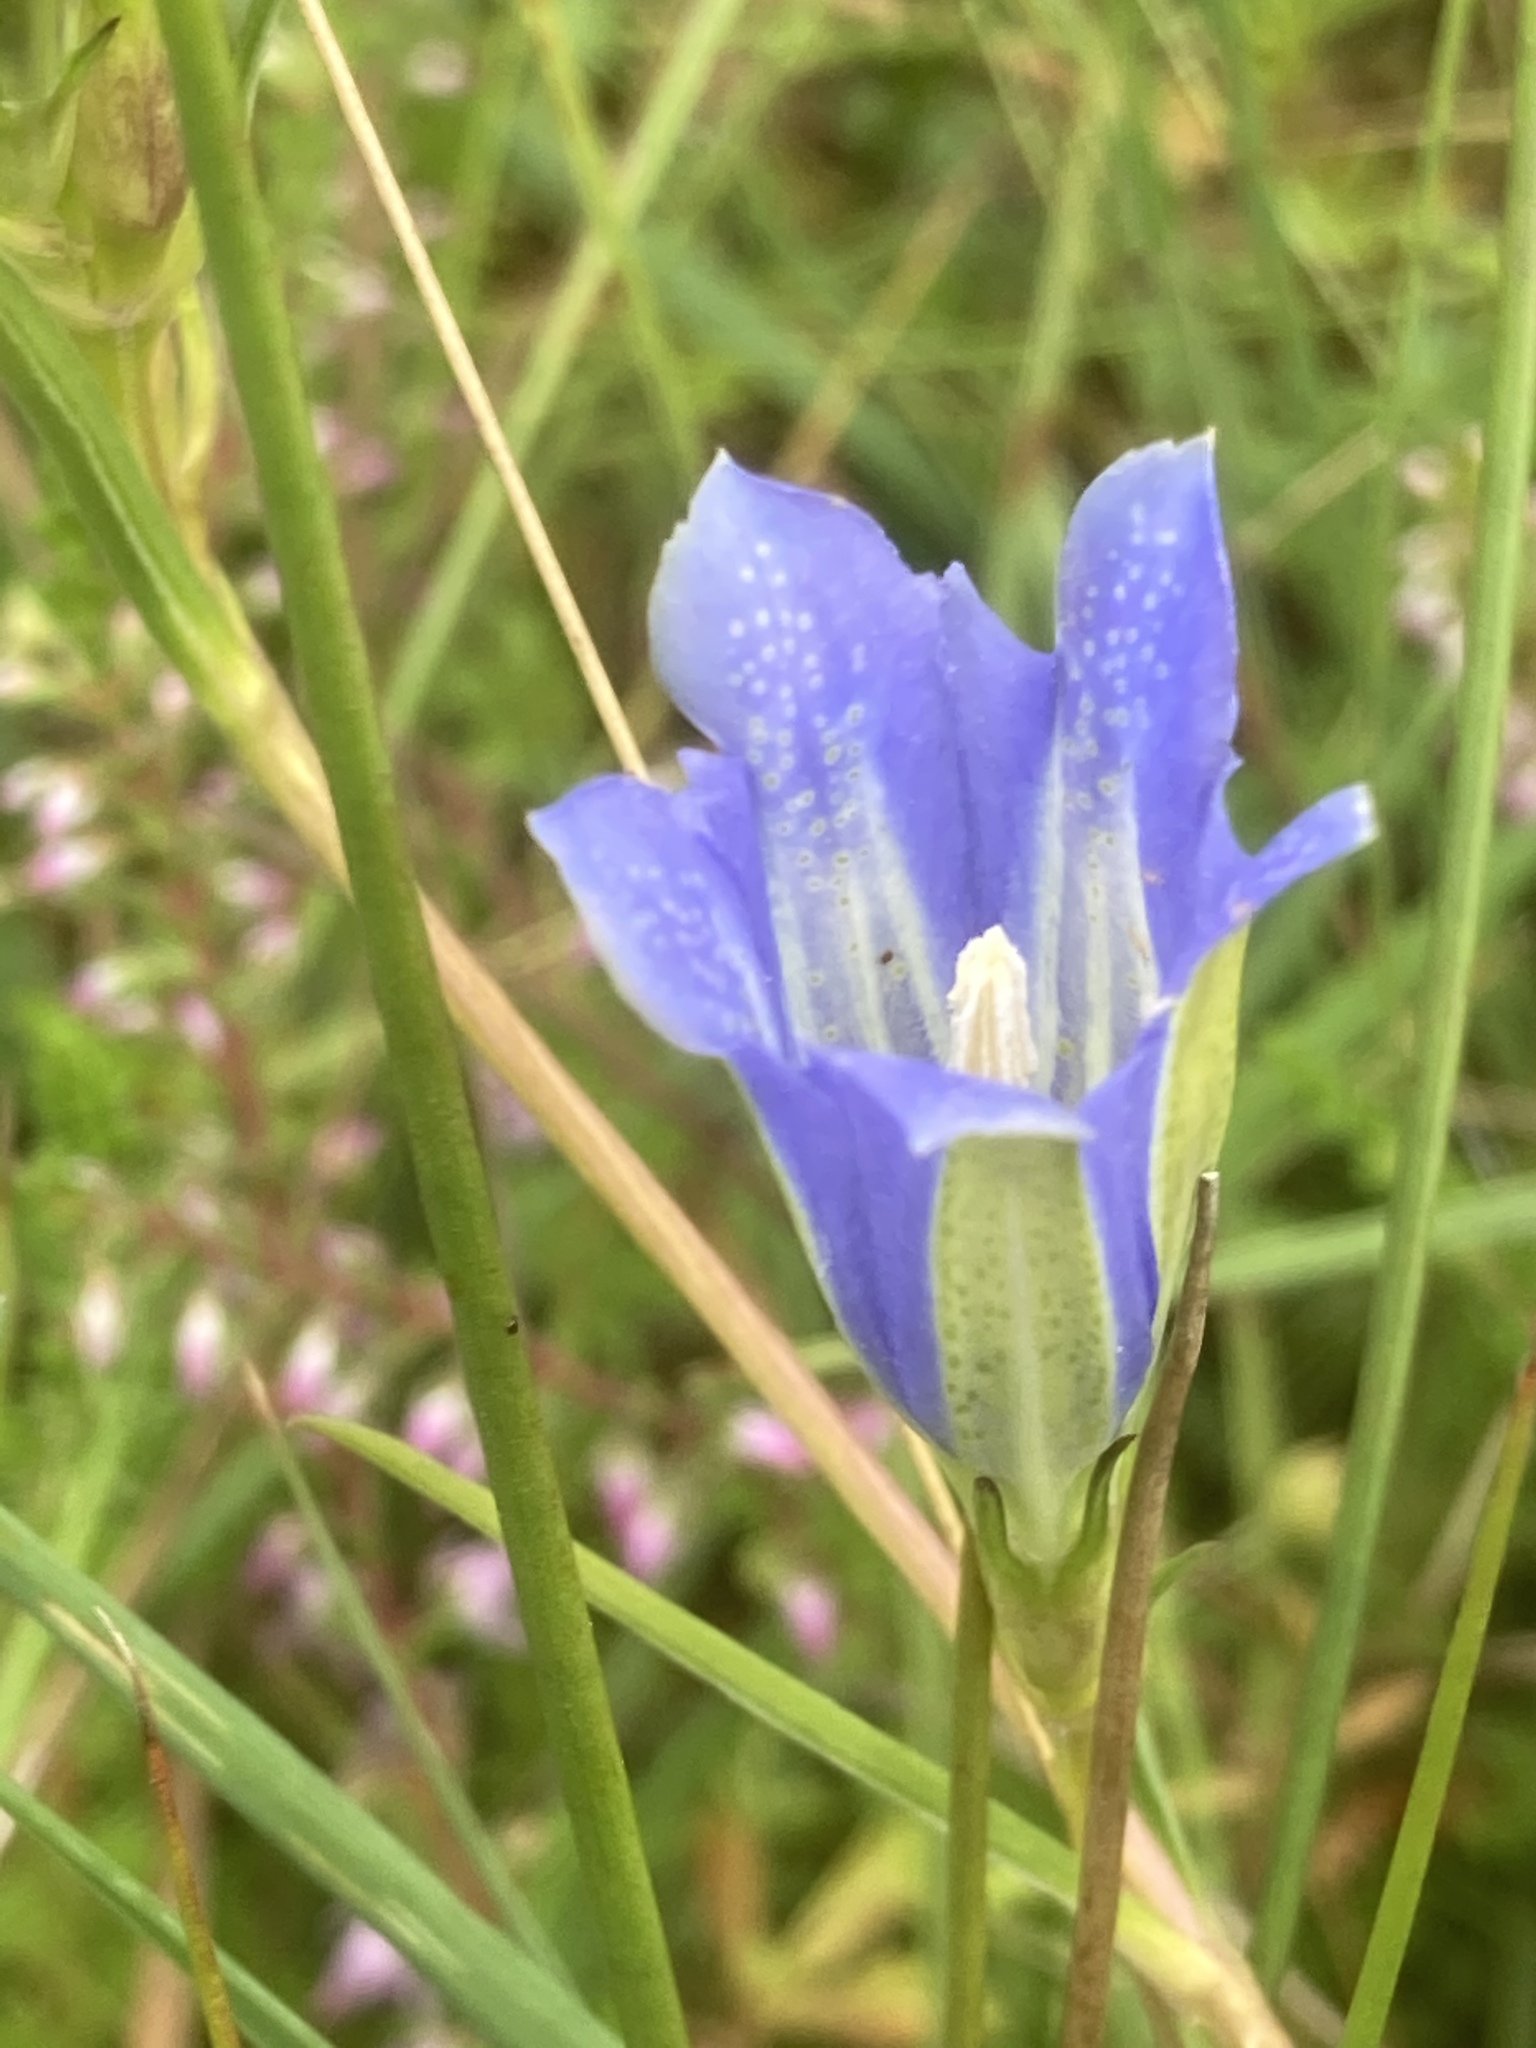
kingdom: Plantae
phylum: Tracheophyta
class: Magnoliopsida
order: Gentianales
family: Gentianaceae
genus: Gentiana
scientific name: Gentiana pneumonanthe
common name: Marsh gentian
